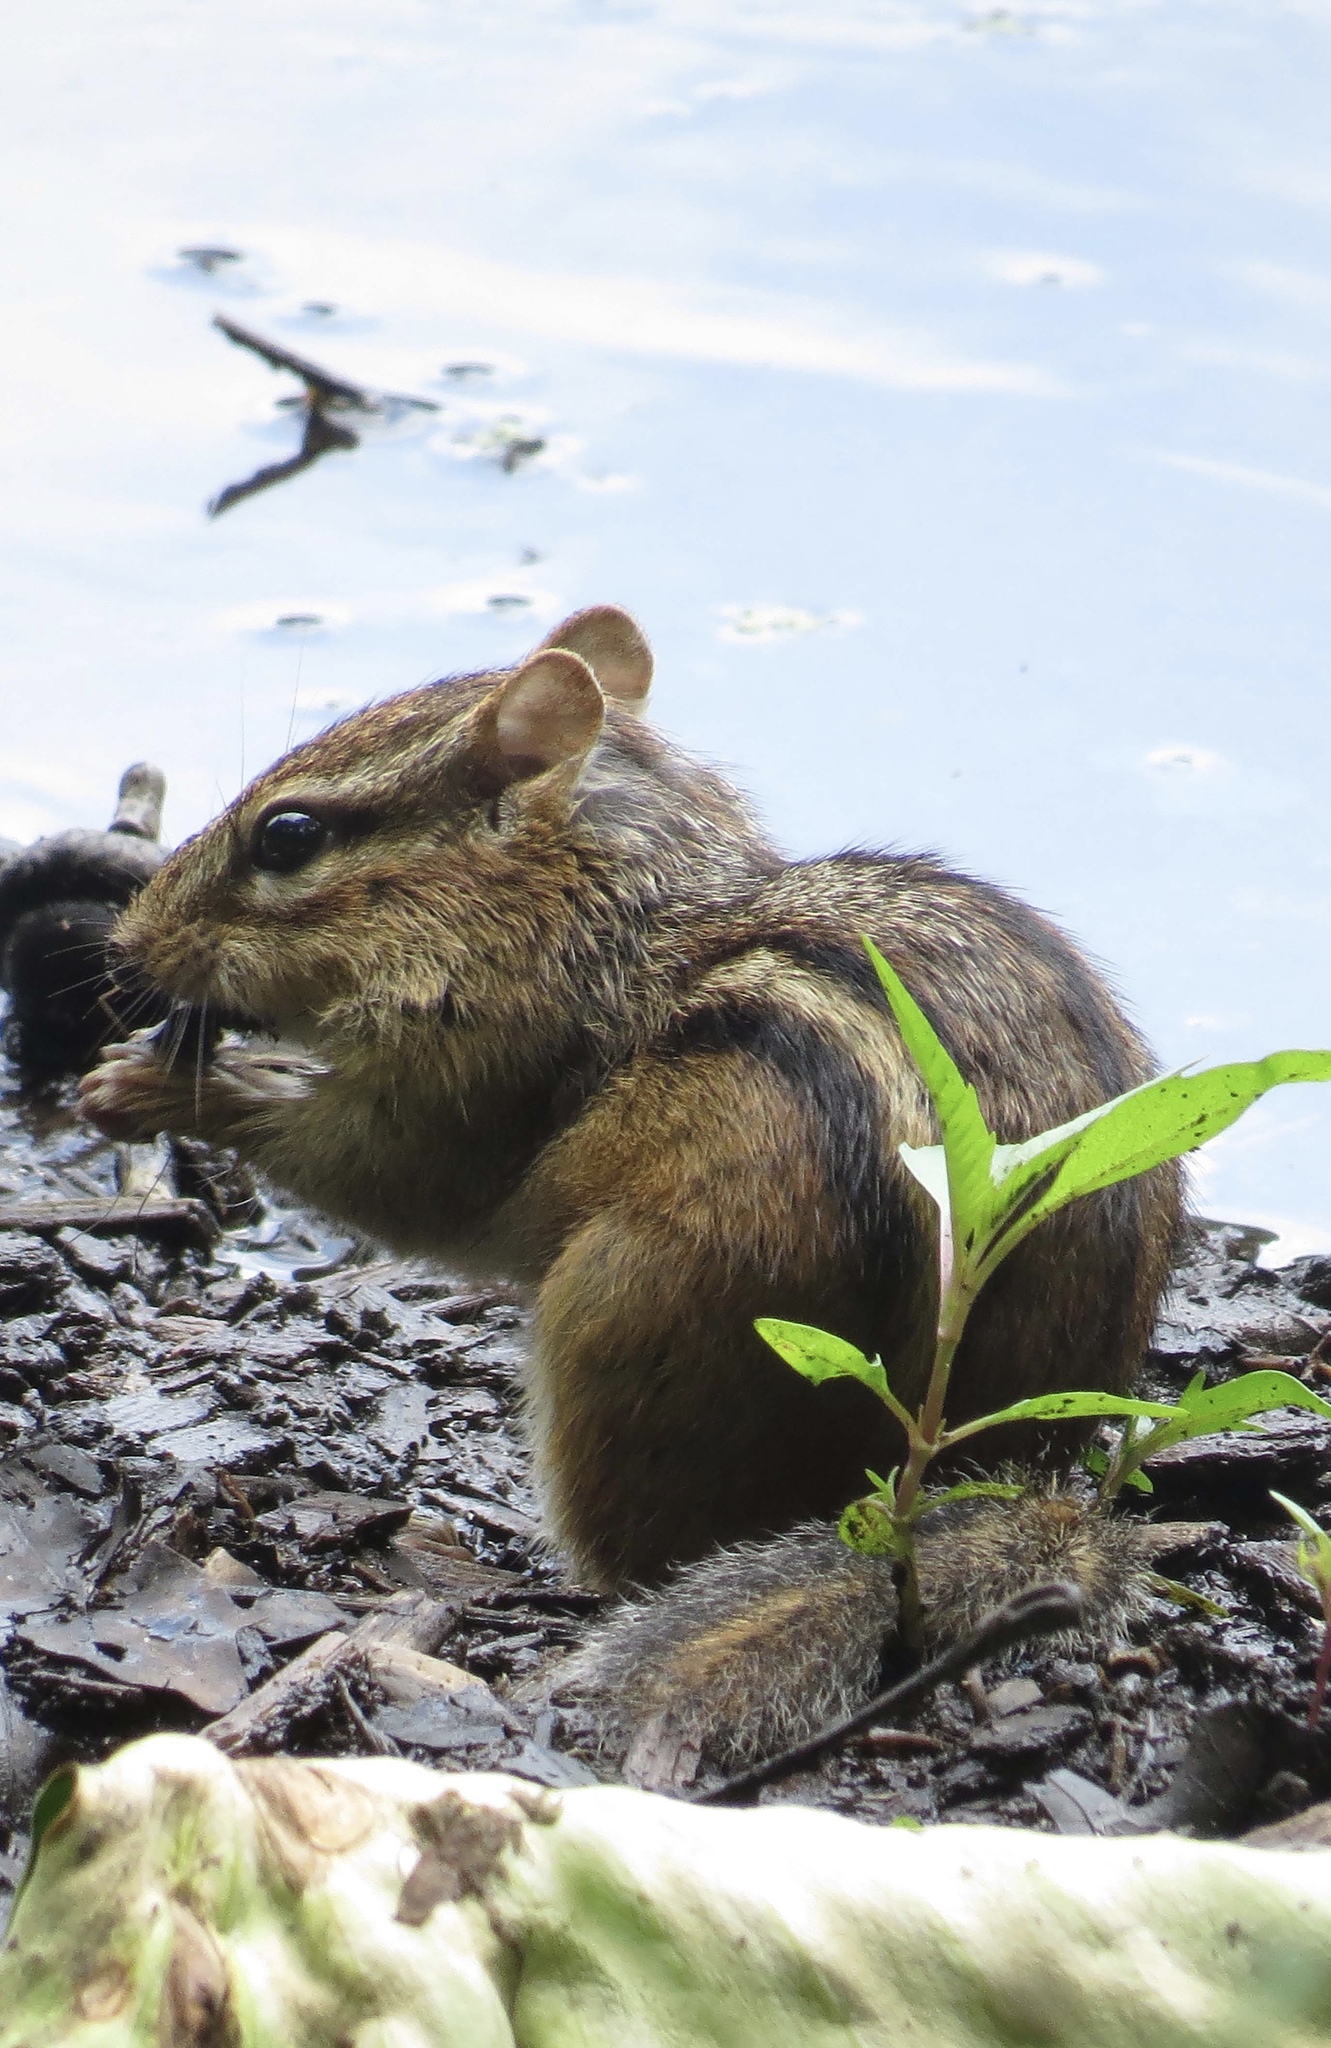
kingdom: Animalia
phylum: Chordata
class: Mammalia
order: Rodentia
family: Sciuridae
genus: Tamias
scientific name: Tamias striatus
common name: Eastern chipmunk
